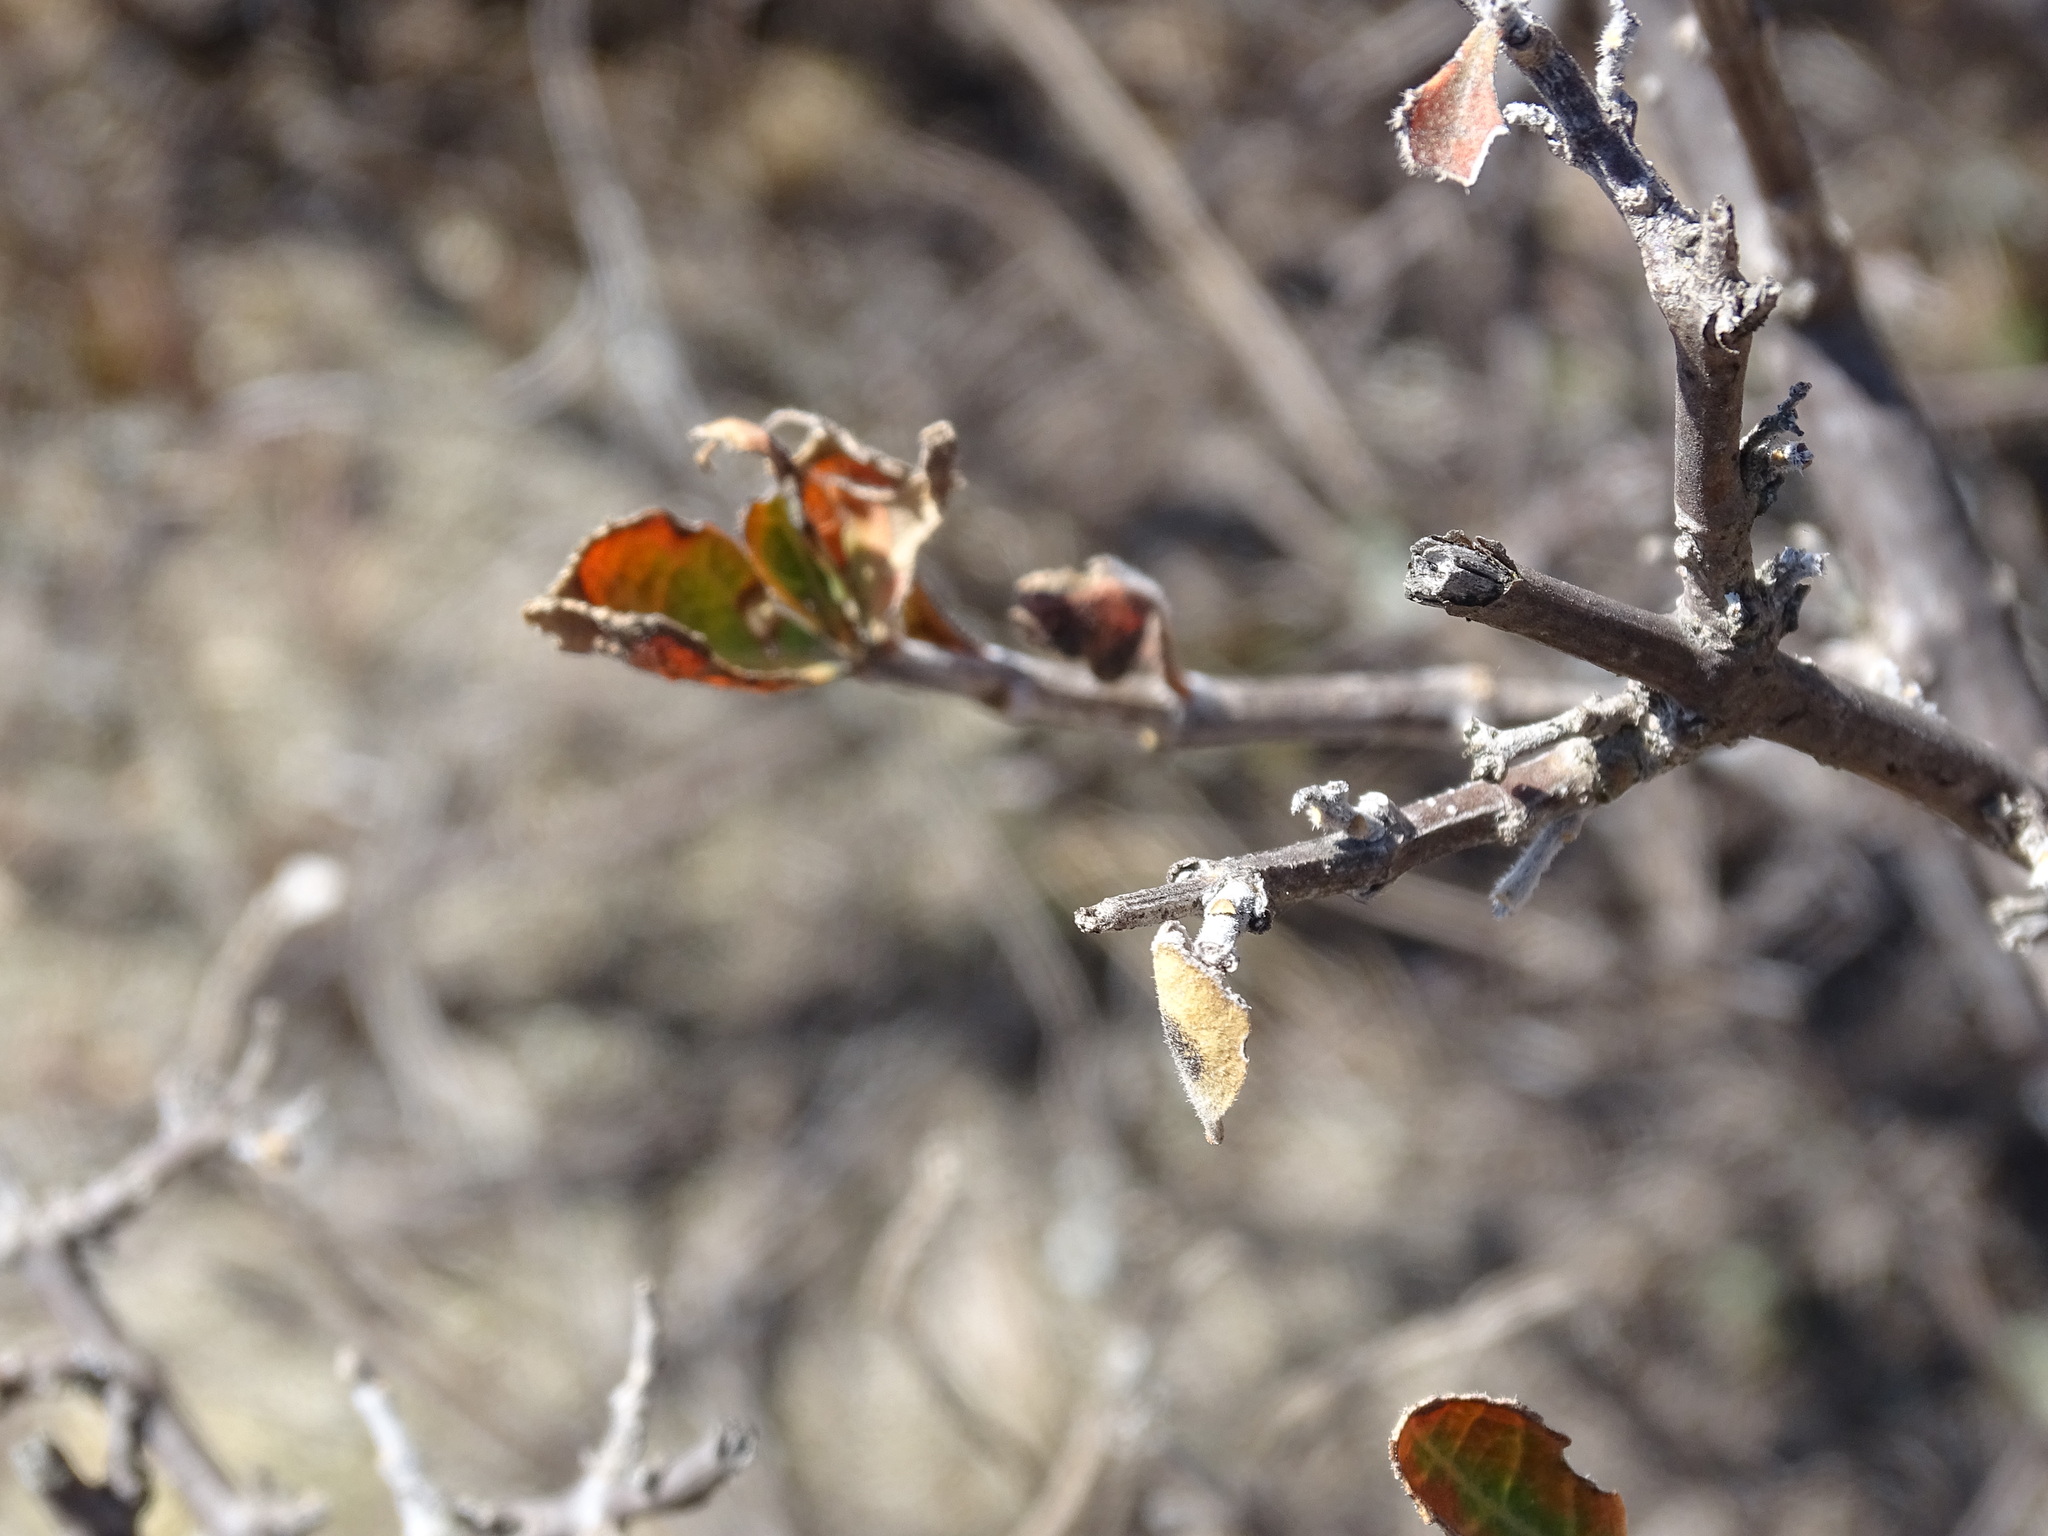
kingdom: Plantae
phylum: Tracheophyta
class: Magnoliopsida
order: Lamiales
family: Verbenaceae
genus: Citharexylum
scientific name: Citharexylum racemosum
